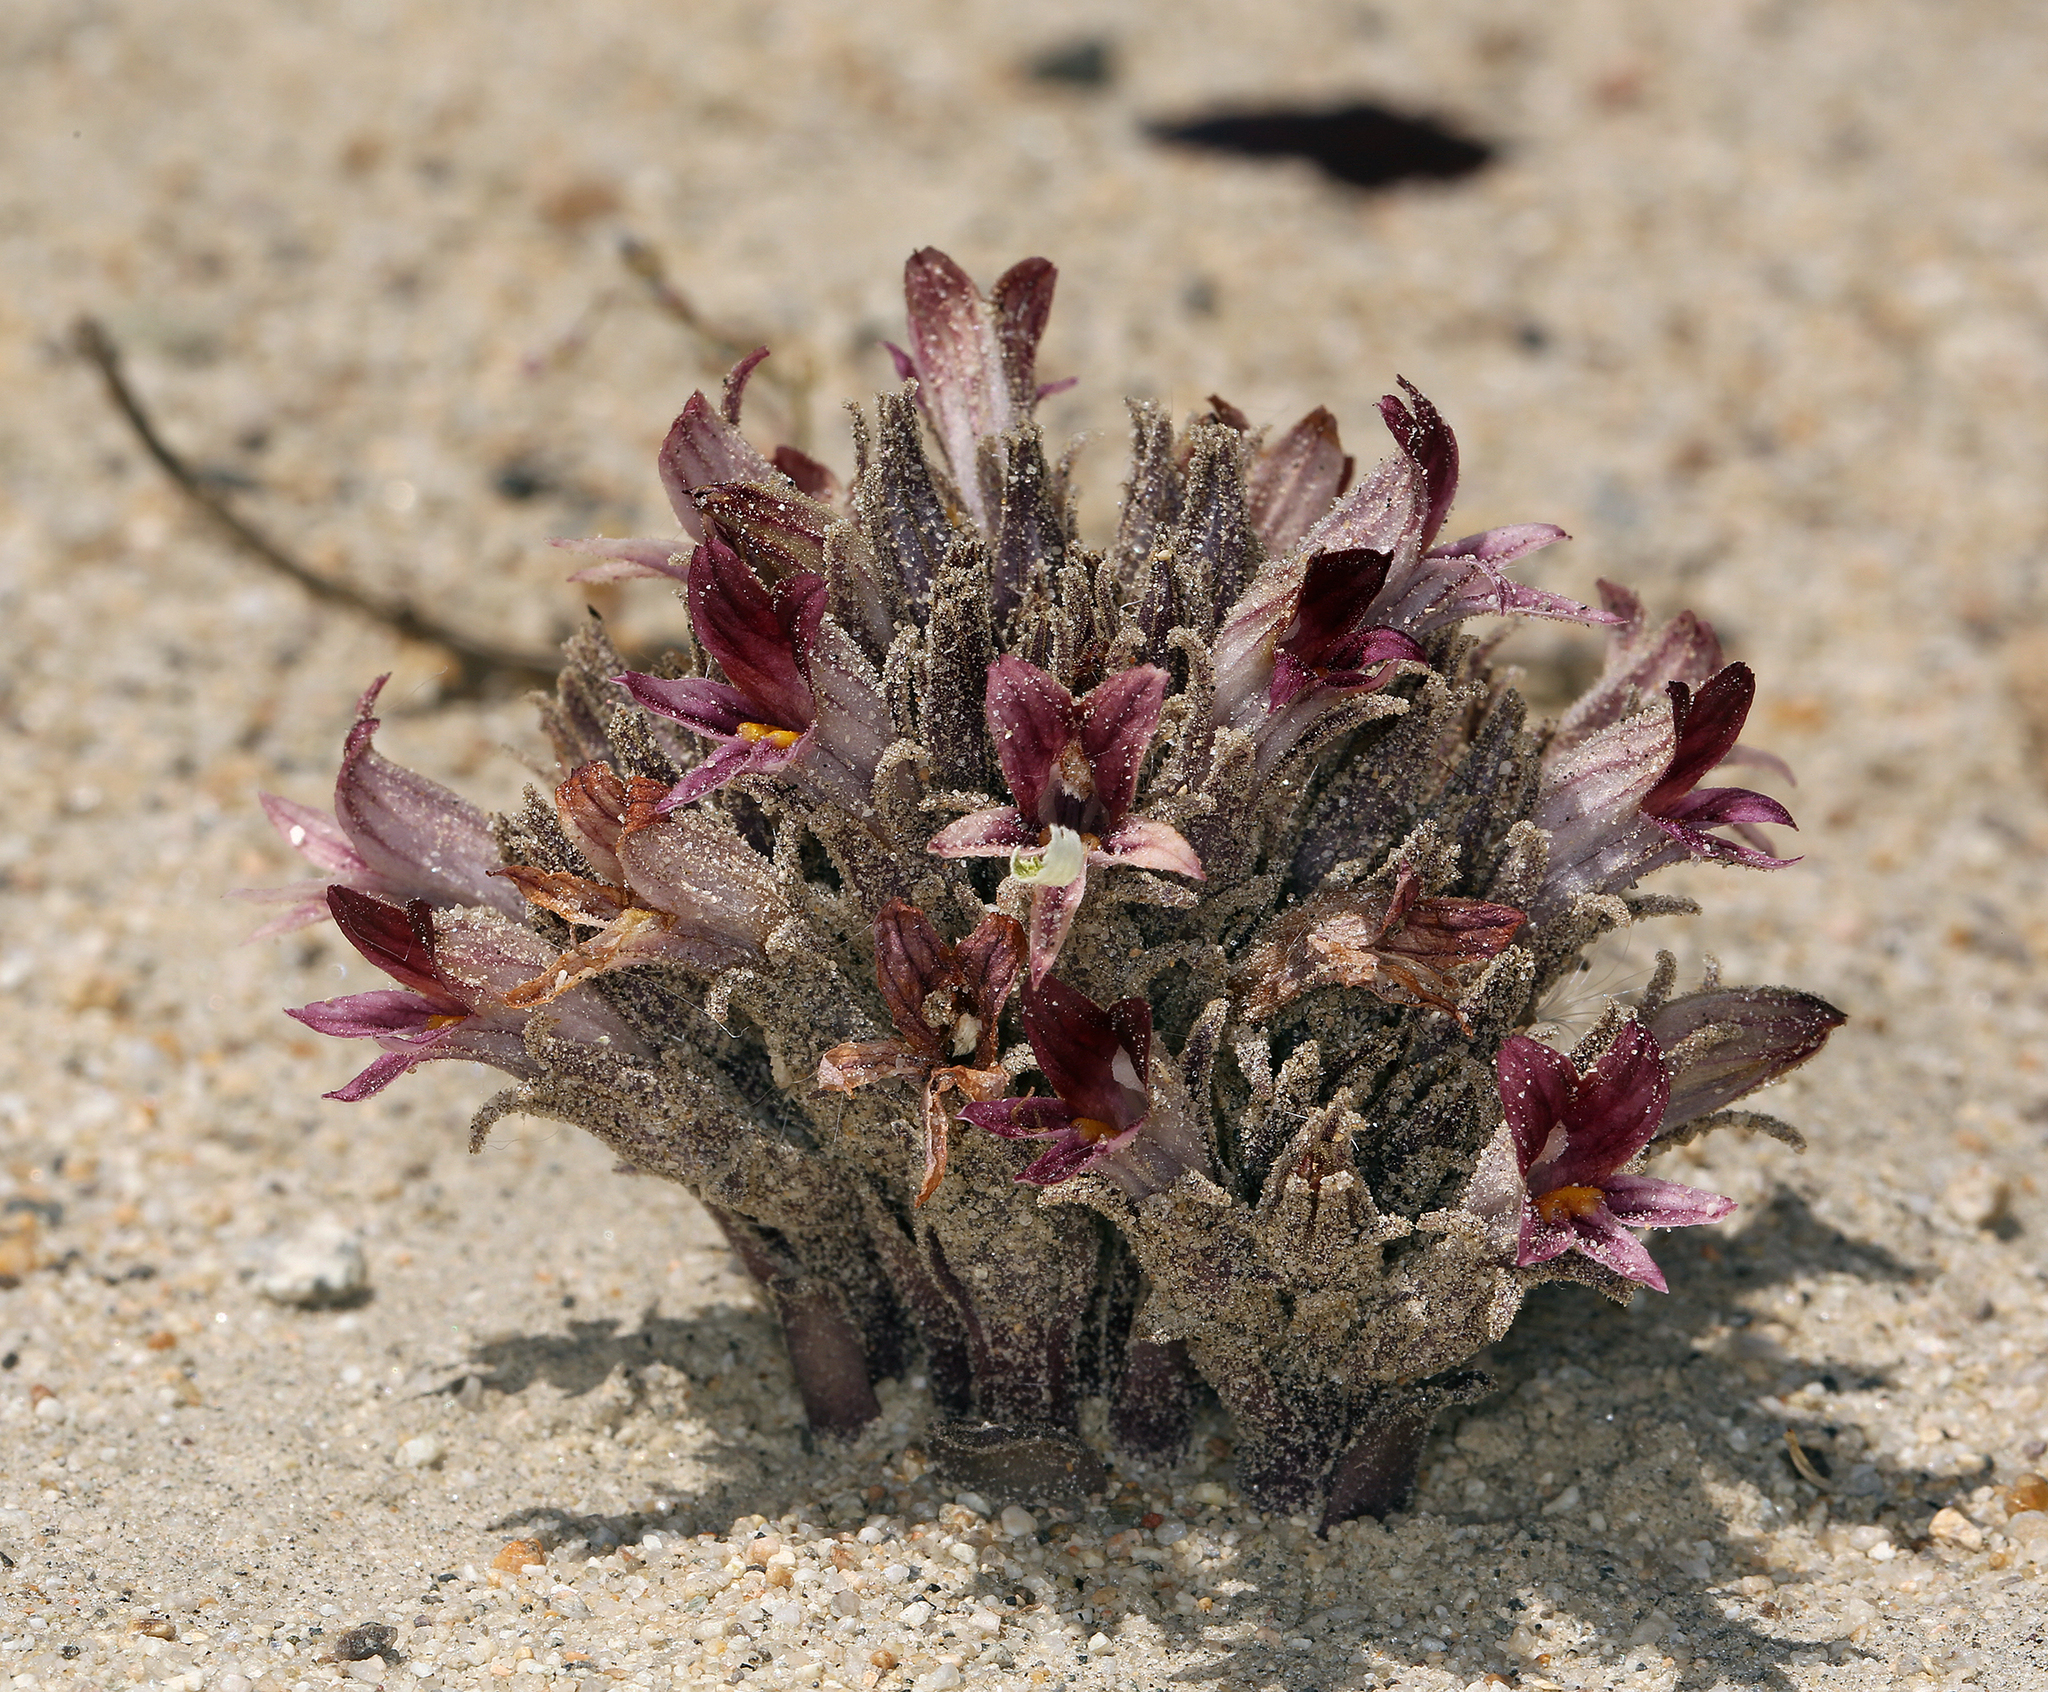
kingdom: Plantae
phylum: Tracheophyta
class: Magnoliopsida
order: Lamiales
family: Orobanchaceae
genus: Aphyllon
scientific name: Aphyllon corymbosum
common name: Flat-top broomrape
